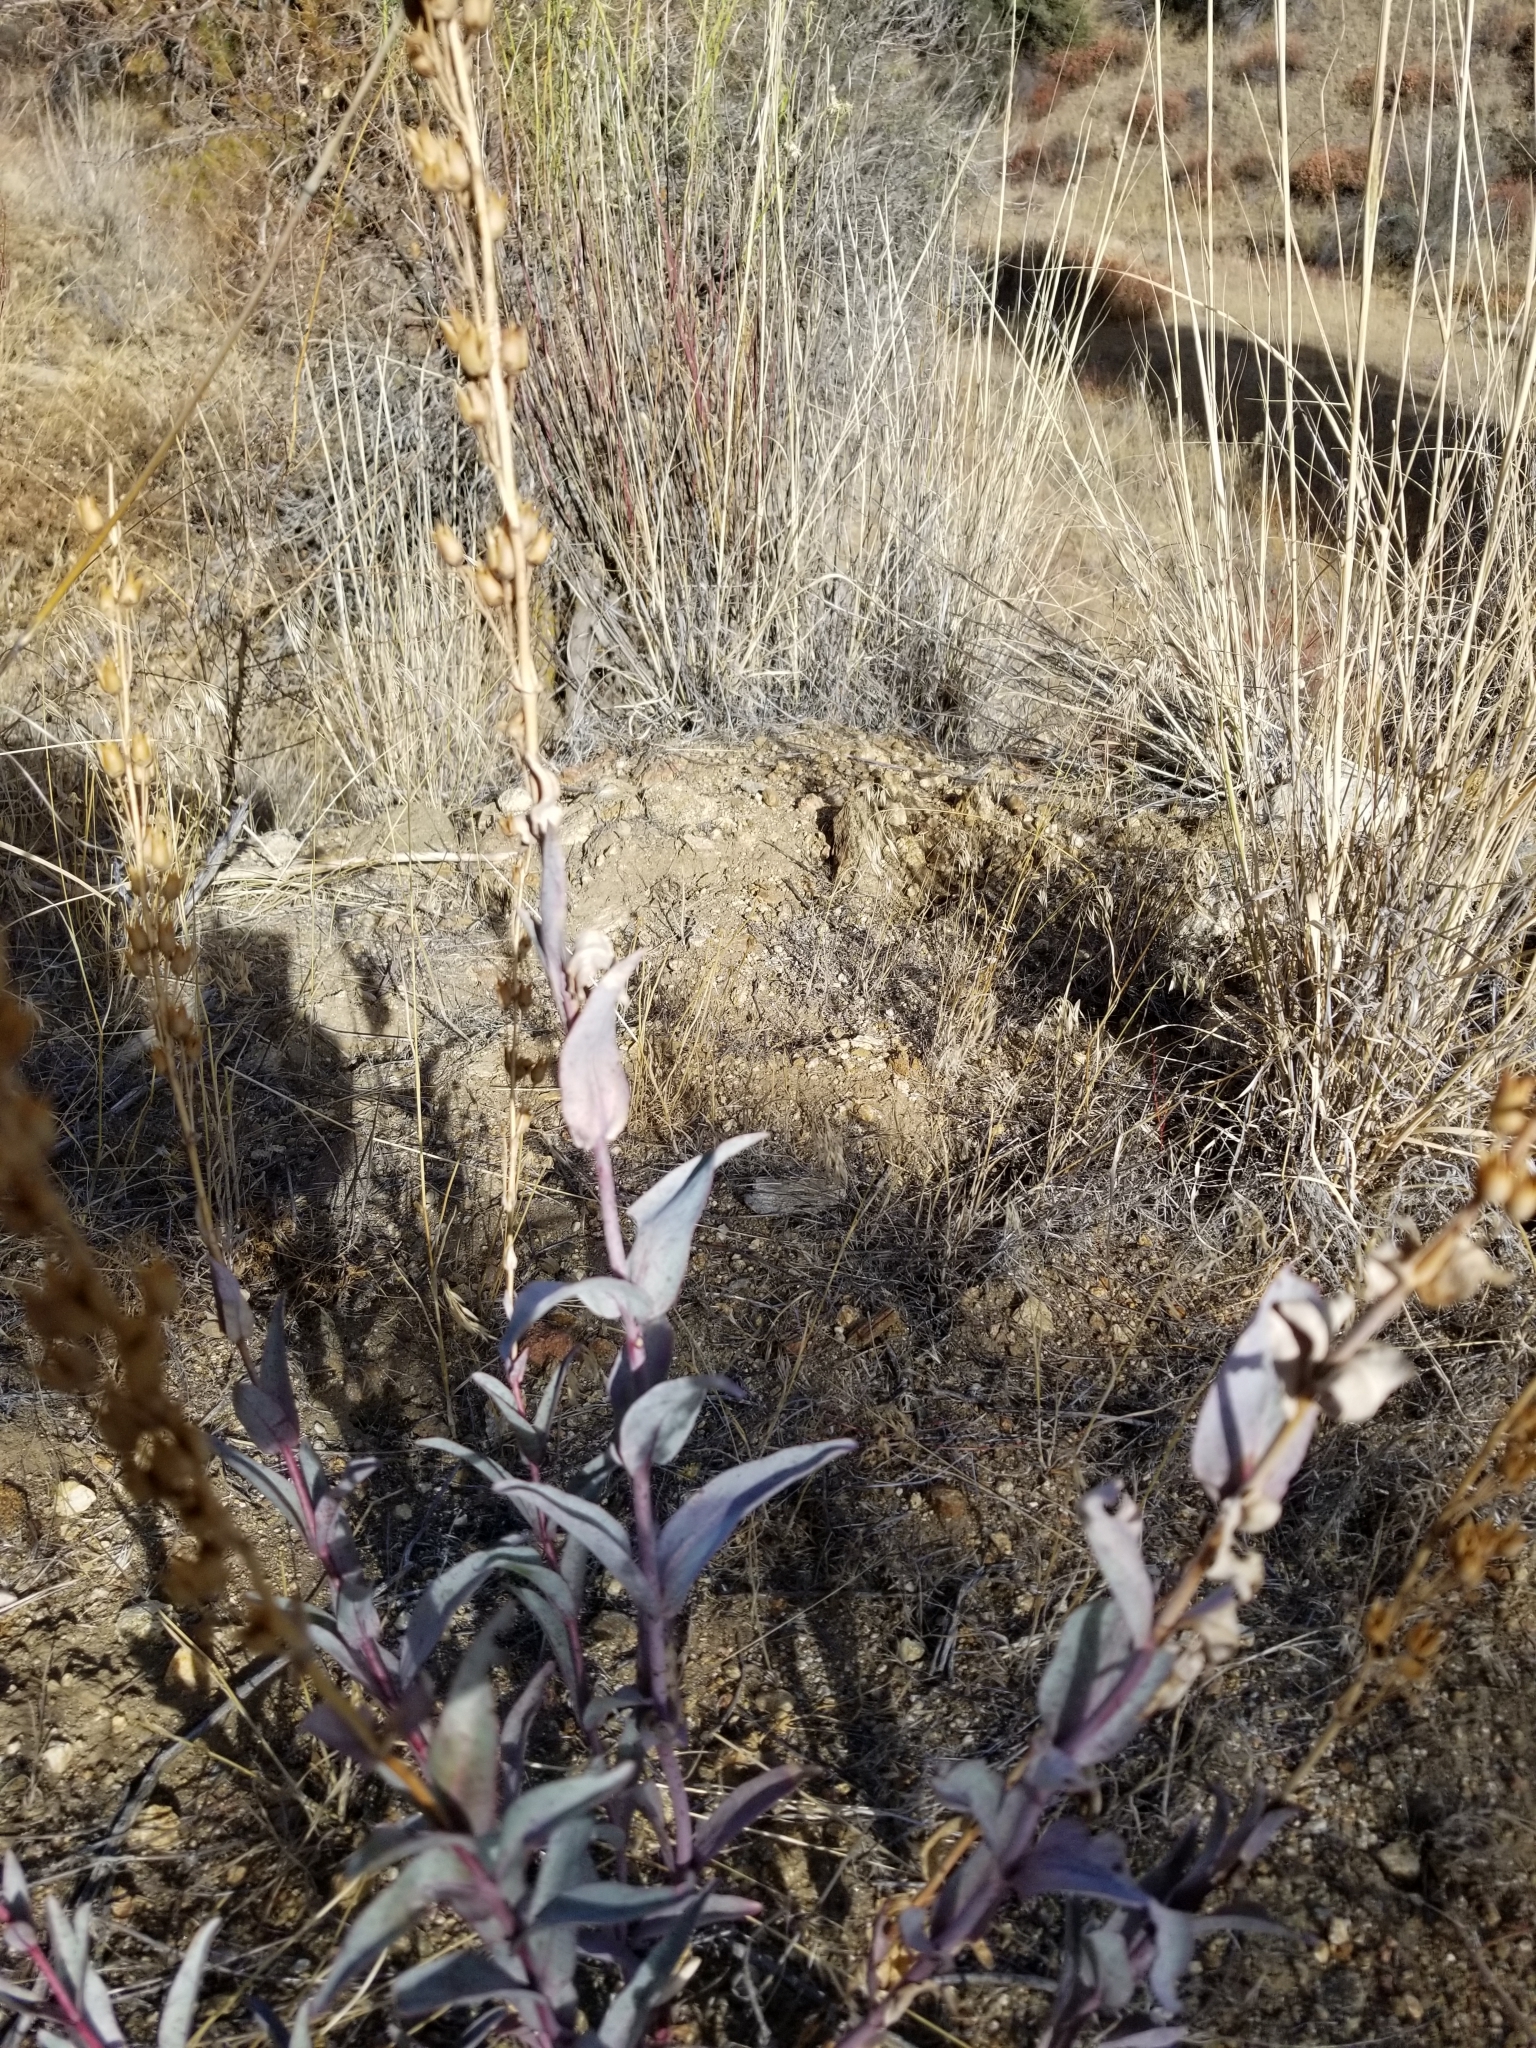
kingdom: Plantae
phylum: Tracheophyta
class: Magnoliopsida
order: Lamiales
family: Plantaginaceae
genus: Penstemon
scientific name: Penstemon centranthifolius
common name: Scarlet bugler
